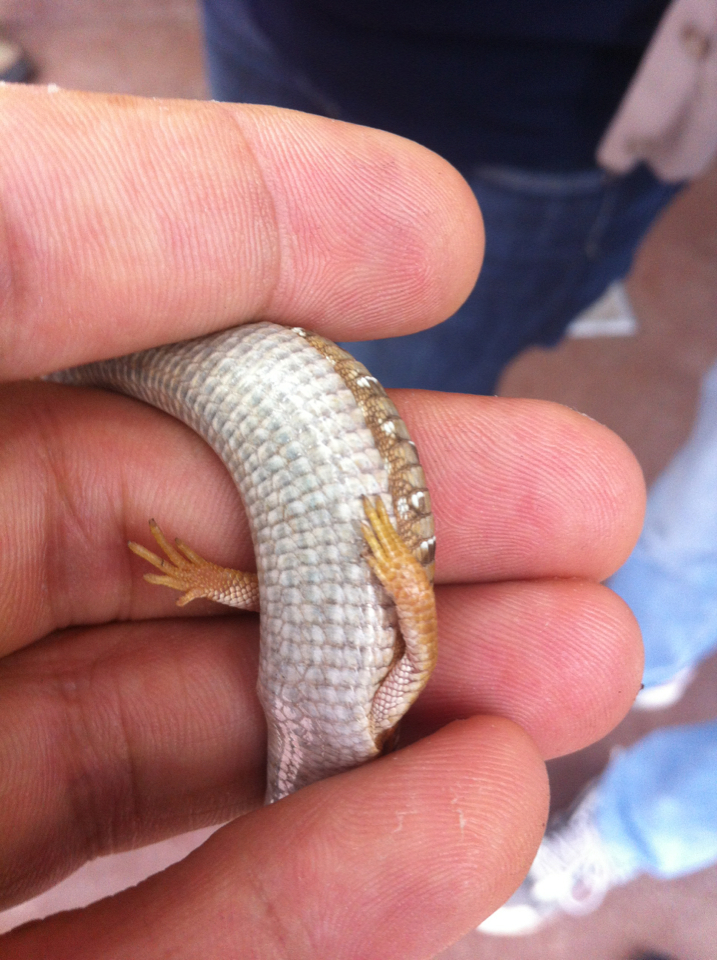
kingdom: Animalia
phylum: Chordata
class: Squamata
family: Anguidae
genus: Elgaria
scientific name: Elgaria multicarinata
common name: Southern alligator lizard
